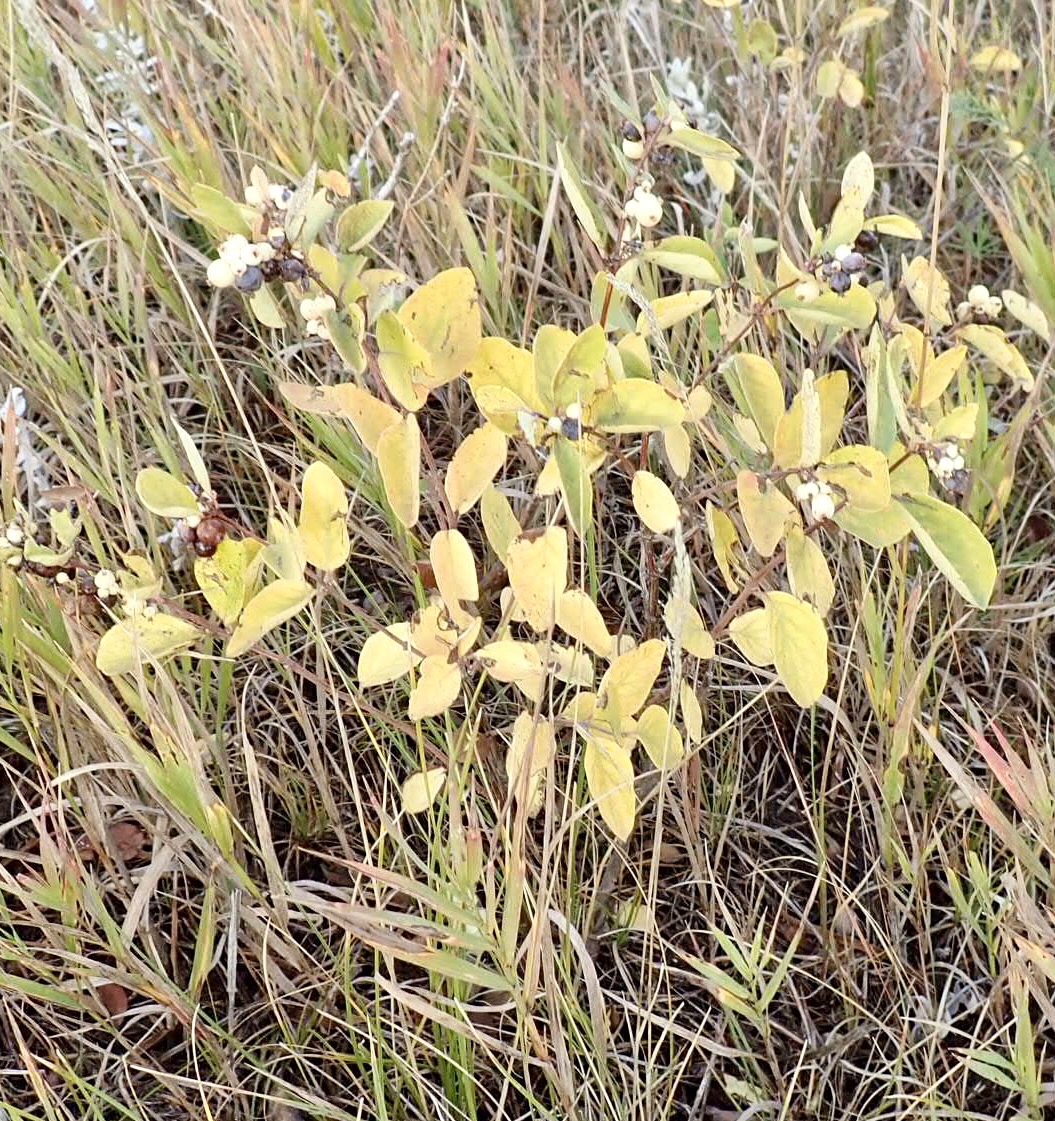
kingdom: Plantae
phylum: Tracheophyta
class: Magnoliopsida
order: Dipsacales
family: Caprifoliaceae
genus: Symphoricarpos
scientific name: Symphoricarpos occidentalis
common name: Wolfberry
